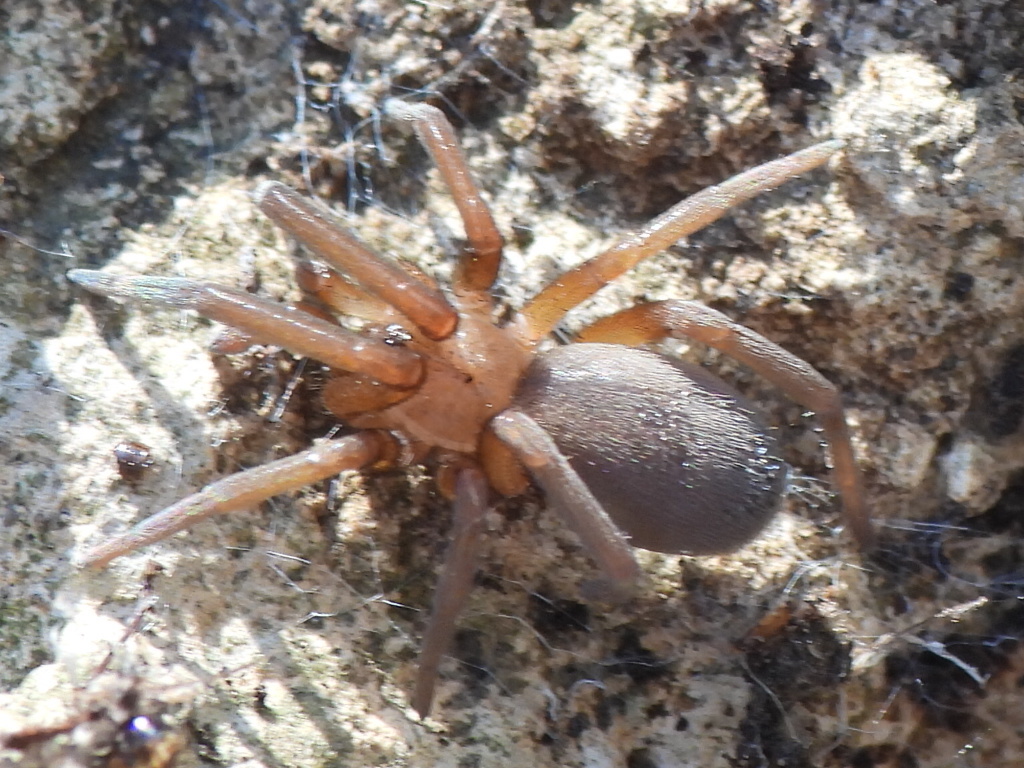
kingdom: Animalia
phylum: Arthropoda
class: Arachnida
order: Araneae
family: Filistatidae
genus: Kukulcania
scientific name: Kukulcania arizonica
